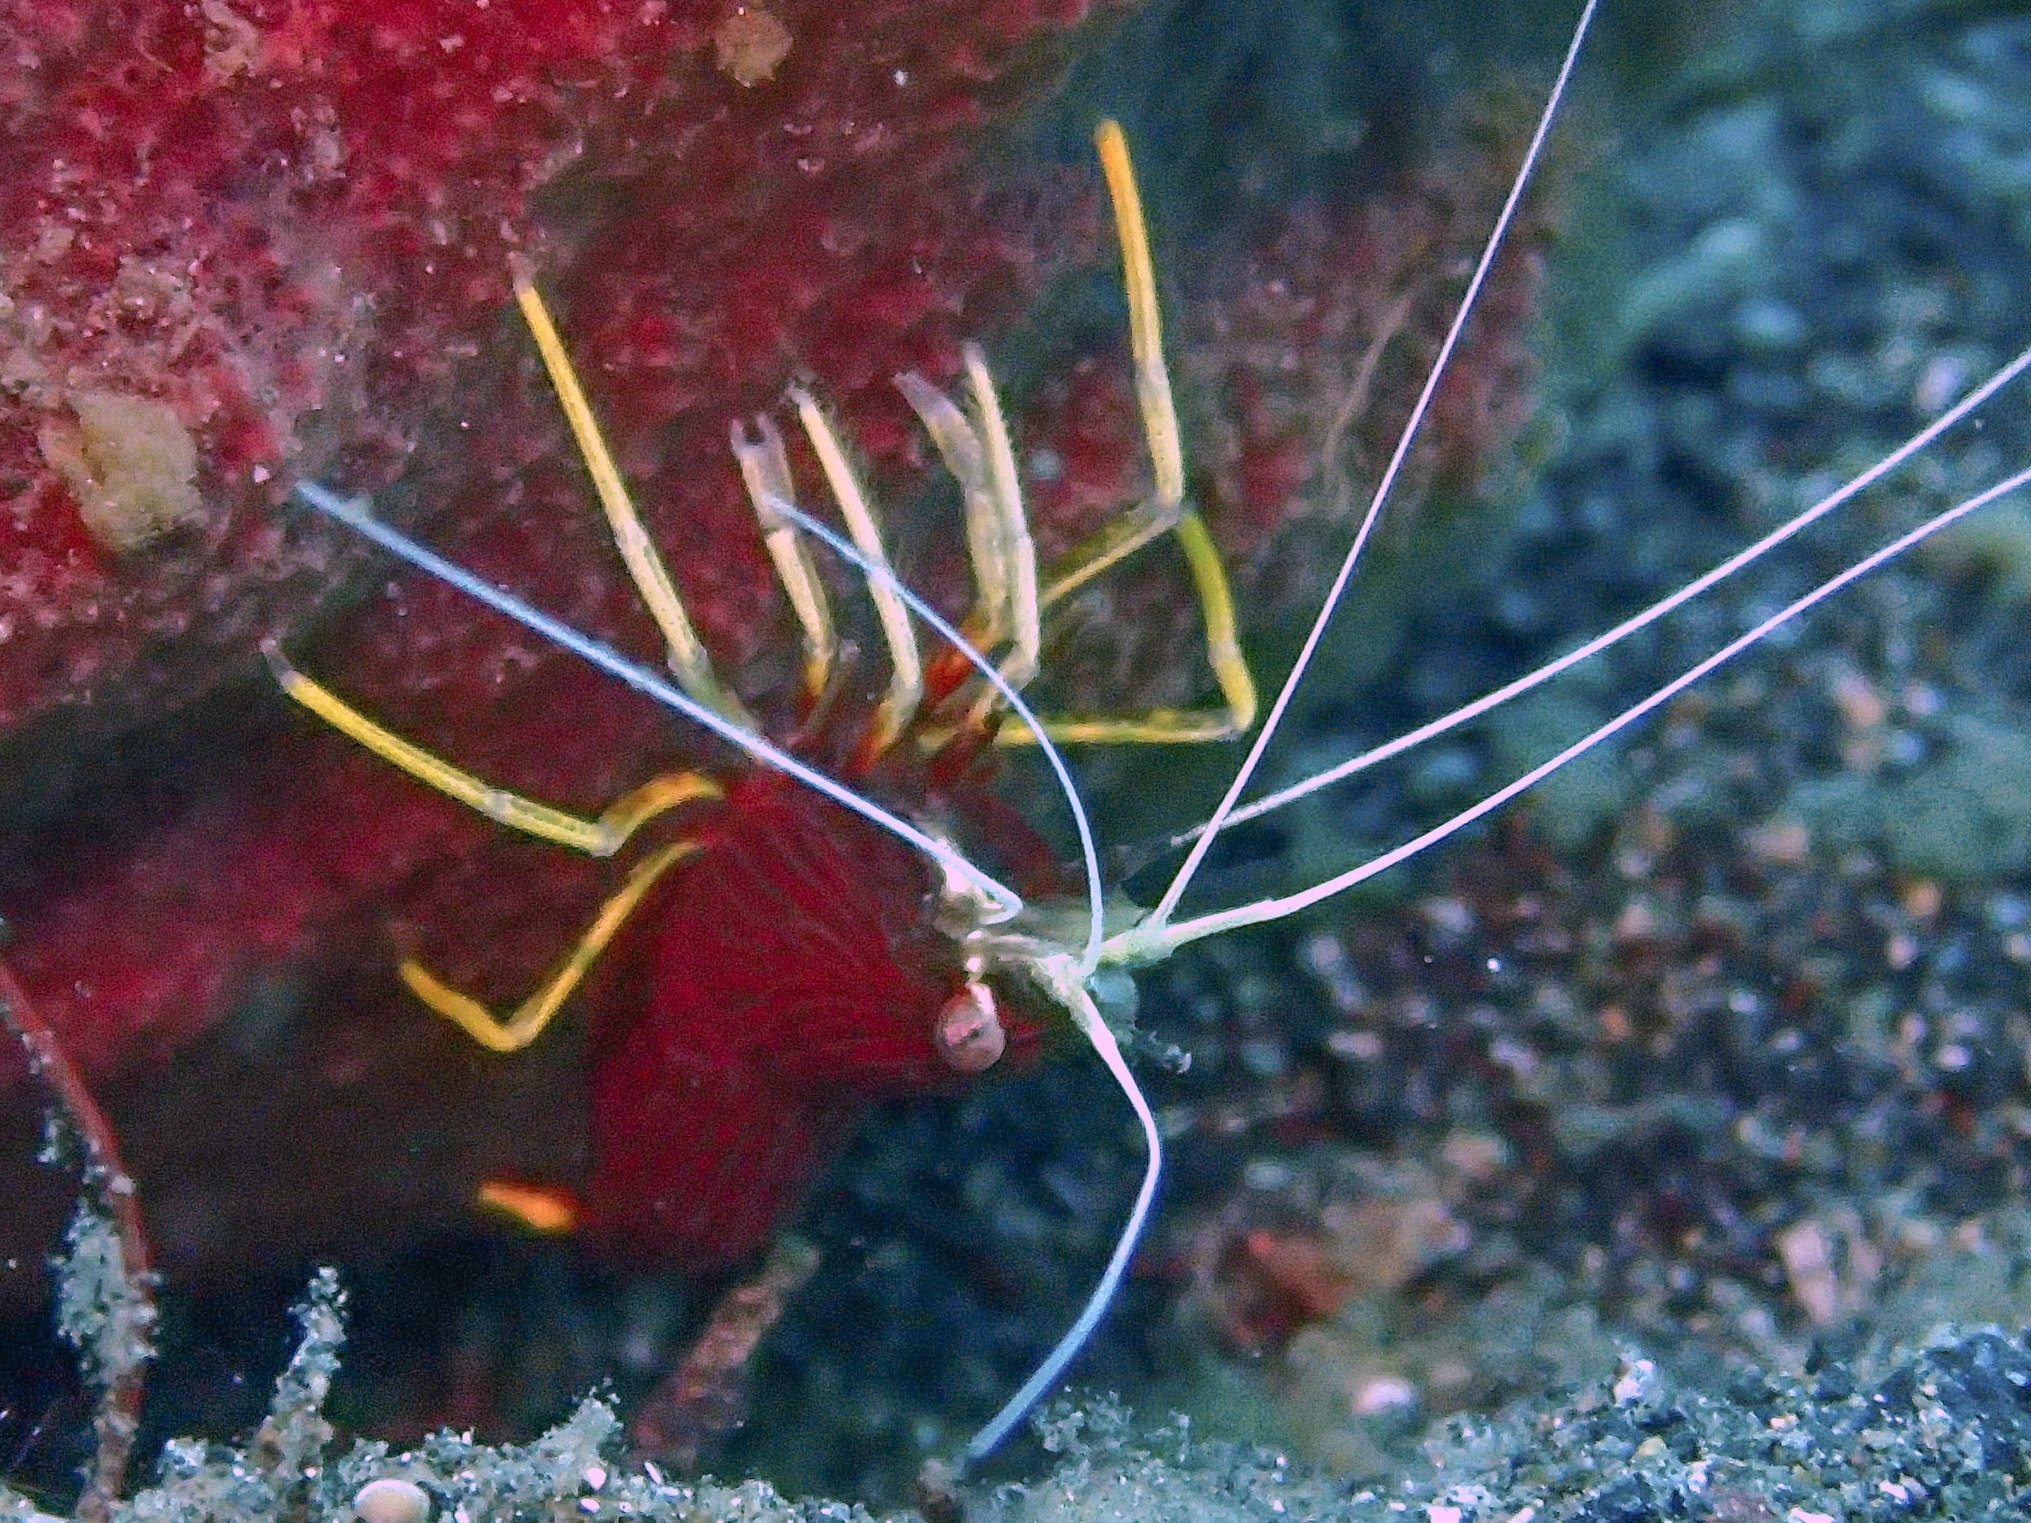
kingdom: Animalia
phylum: Arthropoda
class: Malacostraca
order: Decapoda
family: Lysmatidae
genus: Lysmatella
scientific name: Lysmatella prima
